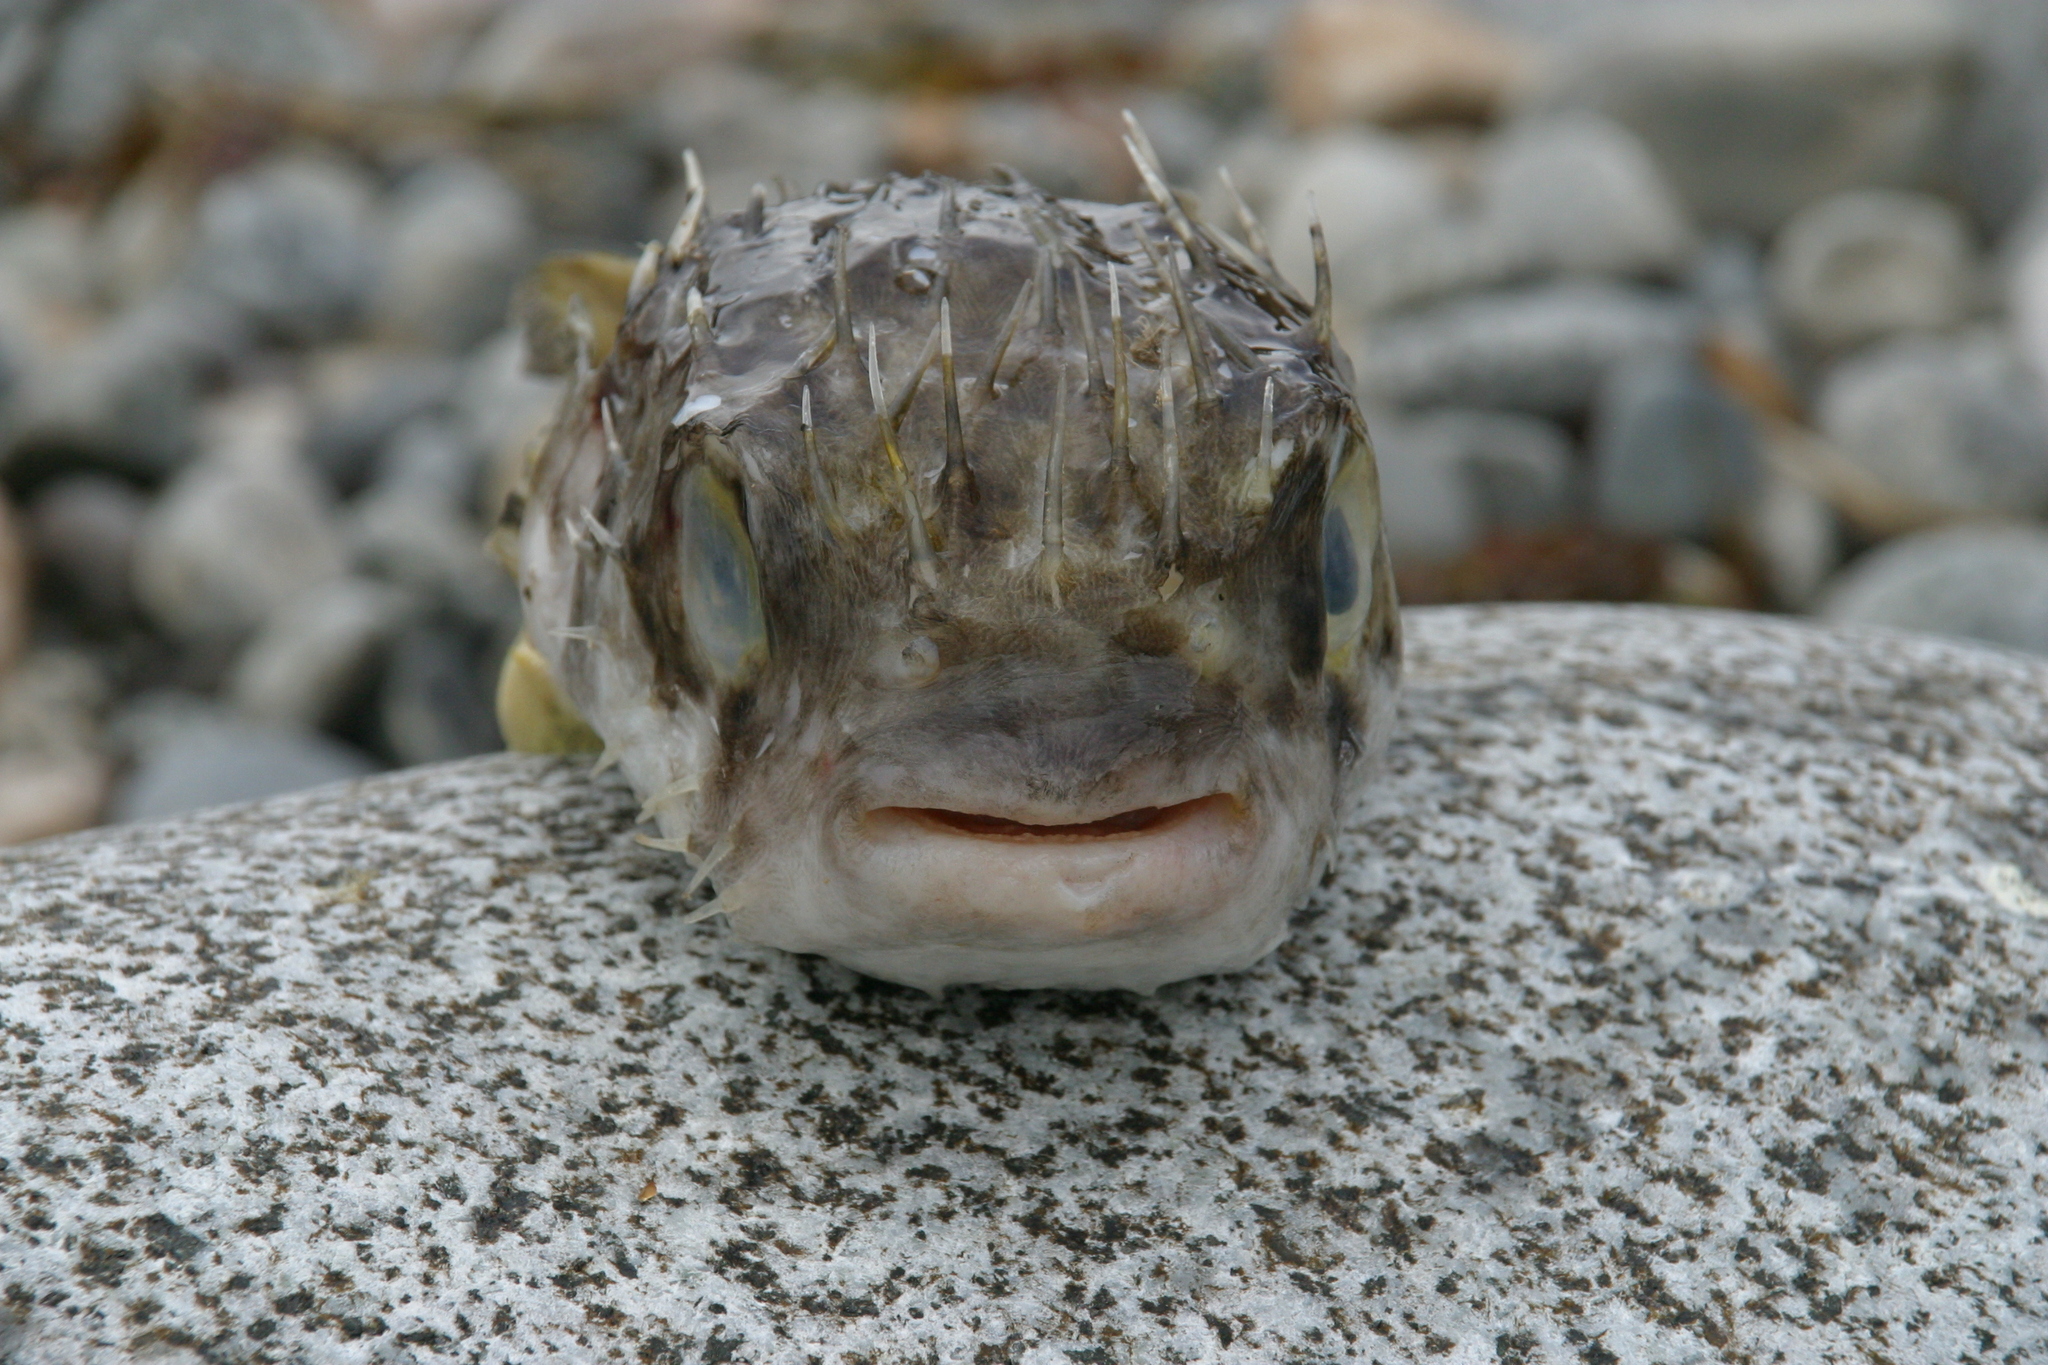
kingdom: Animalia
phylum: Chordata
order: Tetraodontiformes
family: Diodontidae
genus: Diodon
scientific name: Diodon nicthemerus
